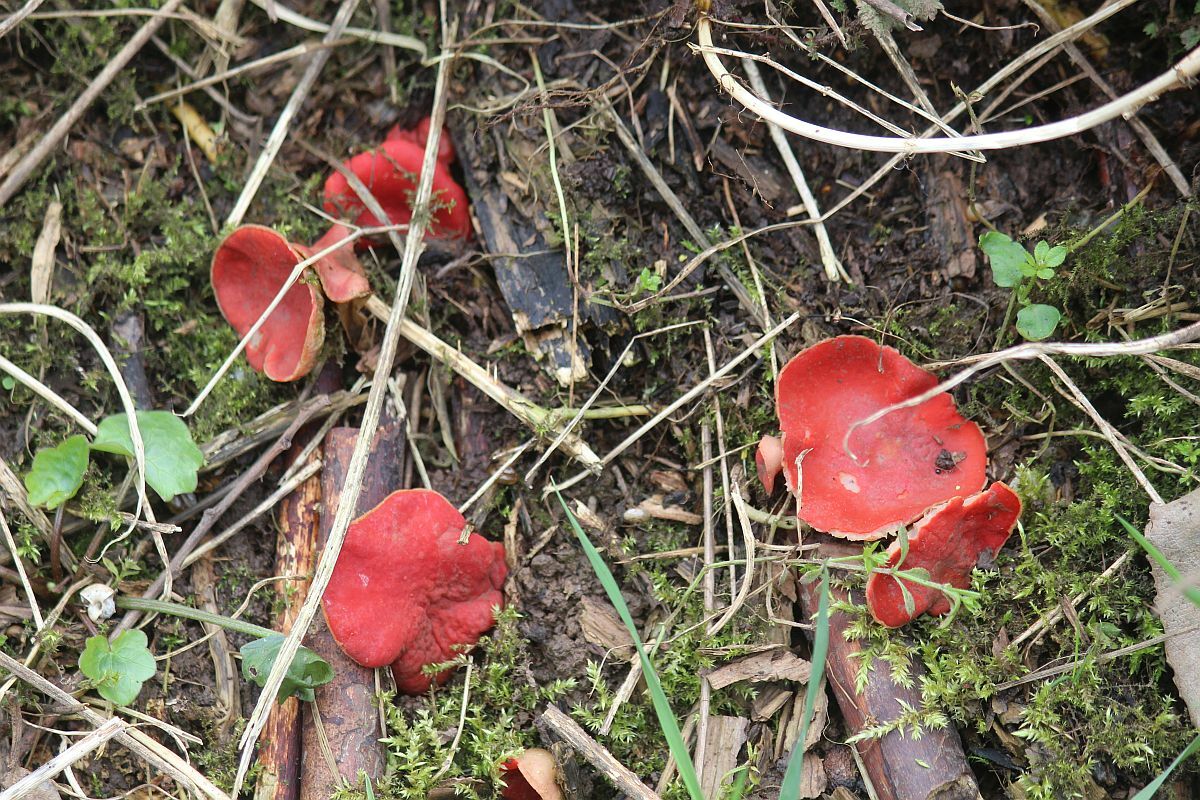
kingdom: Fungi
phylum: Ascomycota
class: Pezizomycetes
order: Pezizales
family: Sarcoscyphaceae
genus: Sarcoscypha
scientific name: Sarcoscypha
